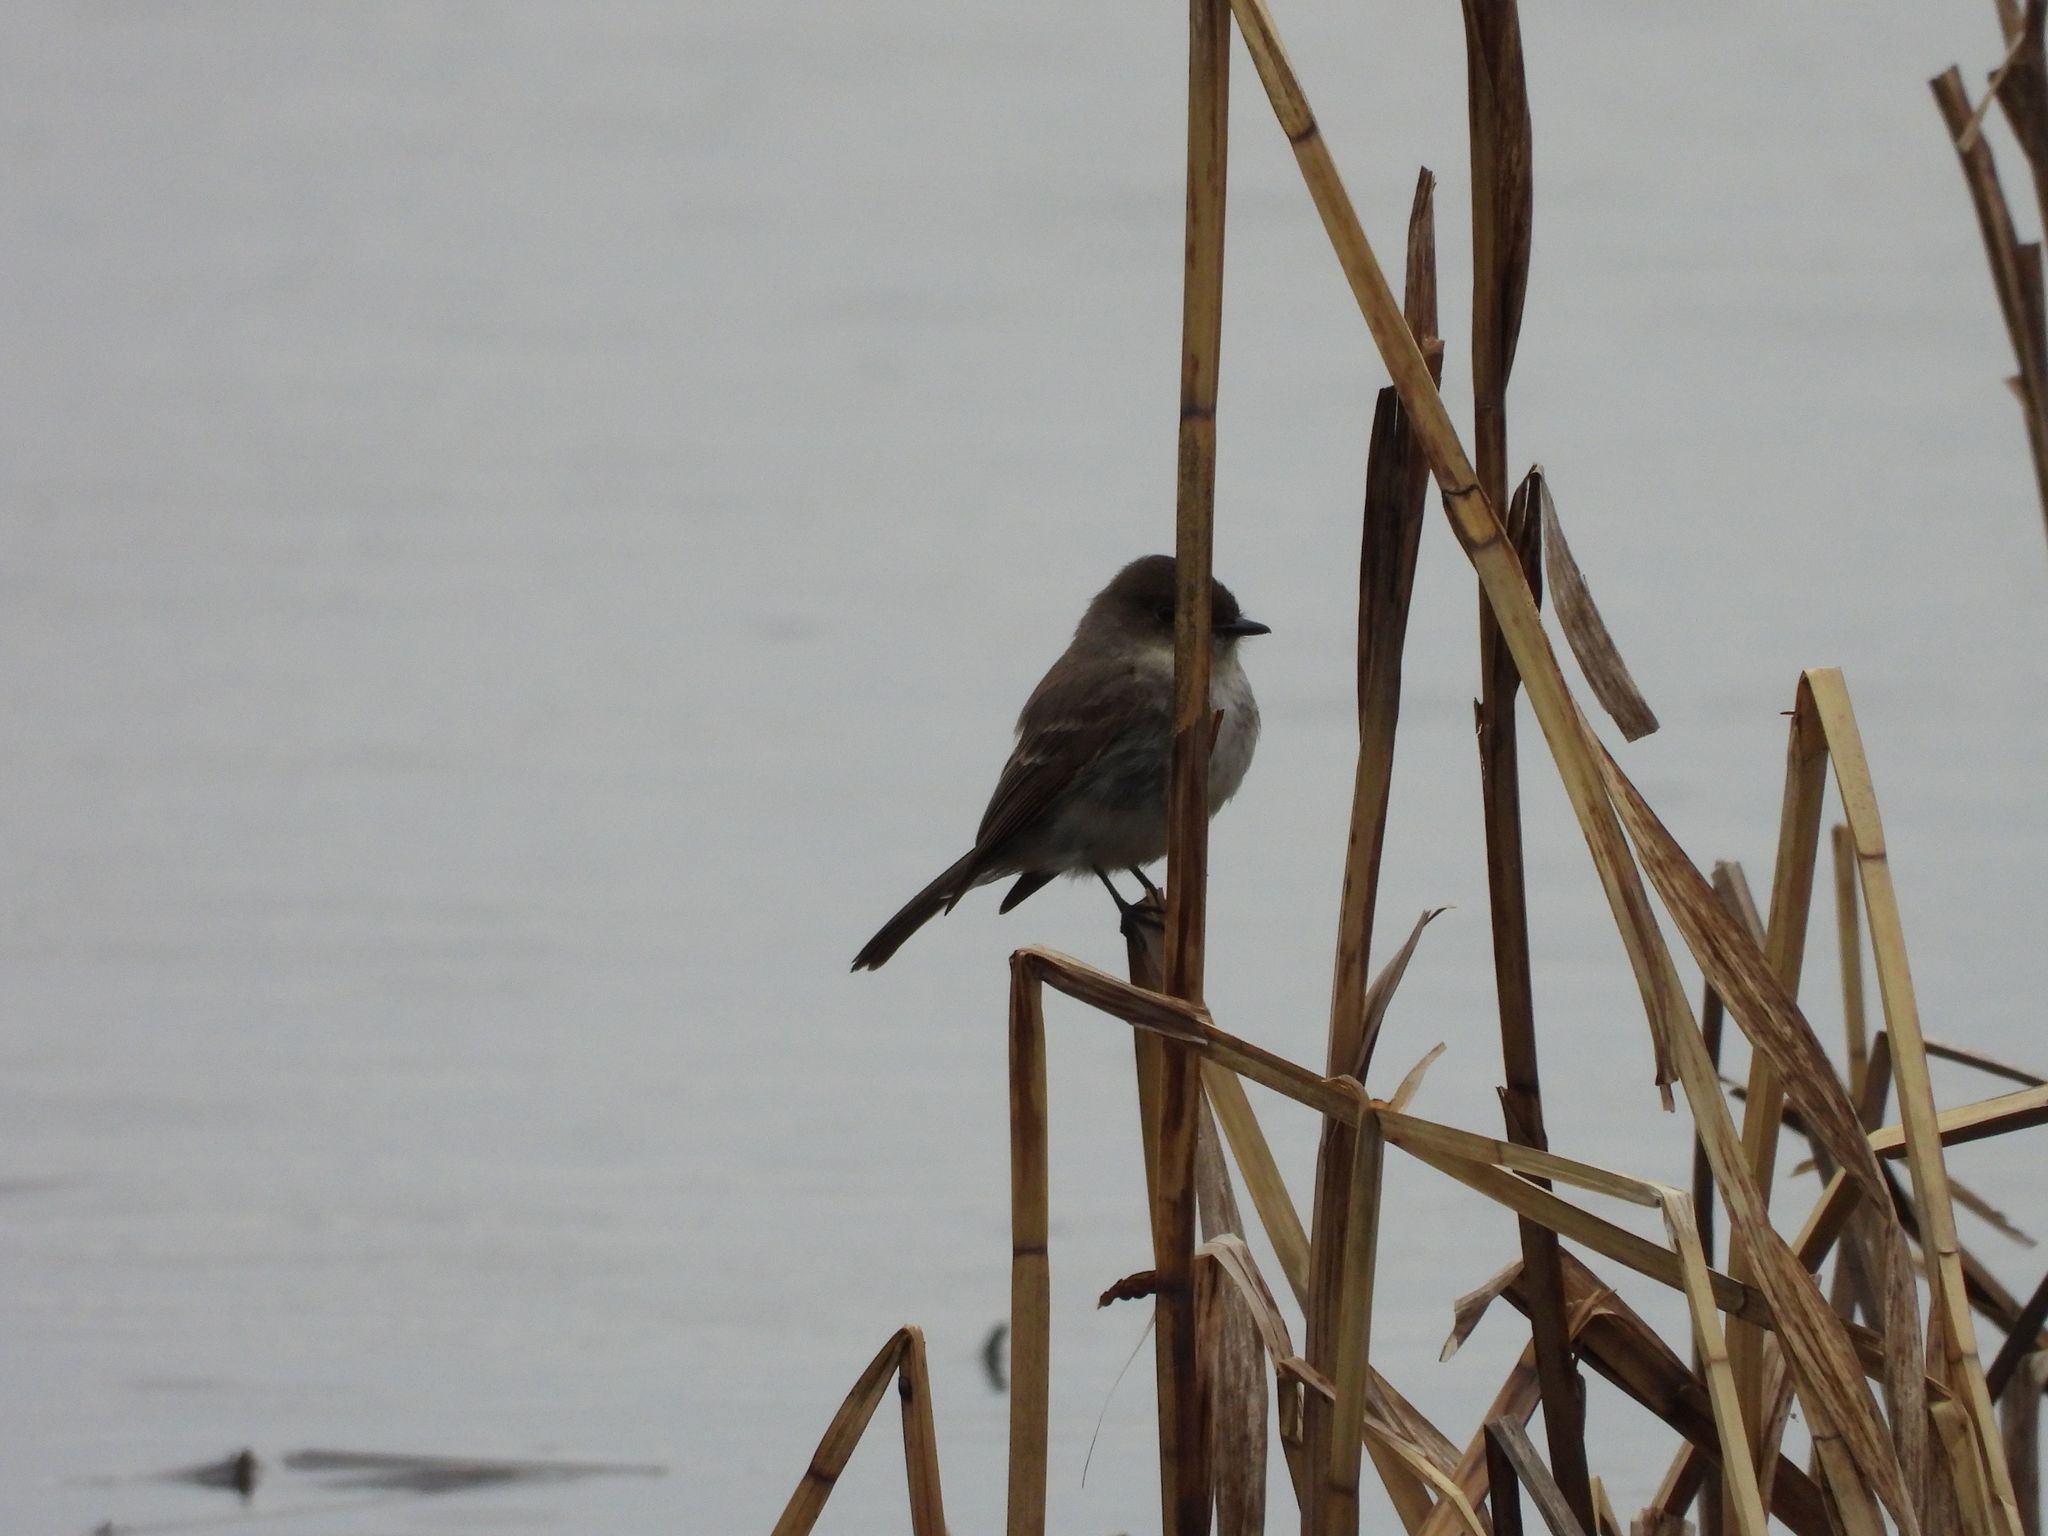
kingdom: Animalia
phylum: Chordata
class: Aves
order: Passeriformes
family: Tyrannidae
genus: Sayornis
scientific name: Sayornis phoebe
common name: Eastern phoebe
